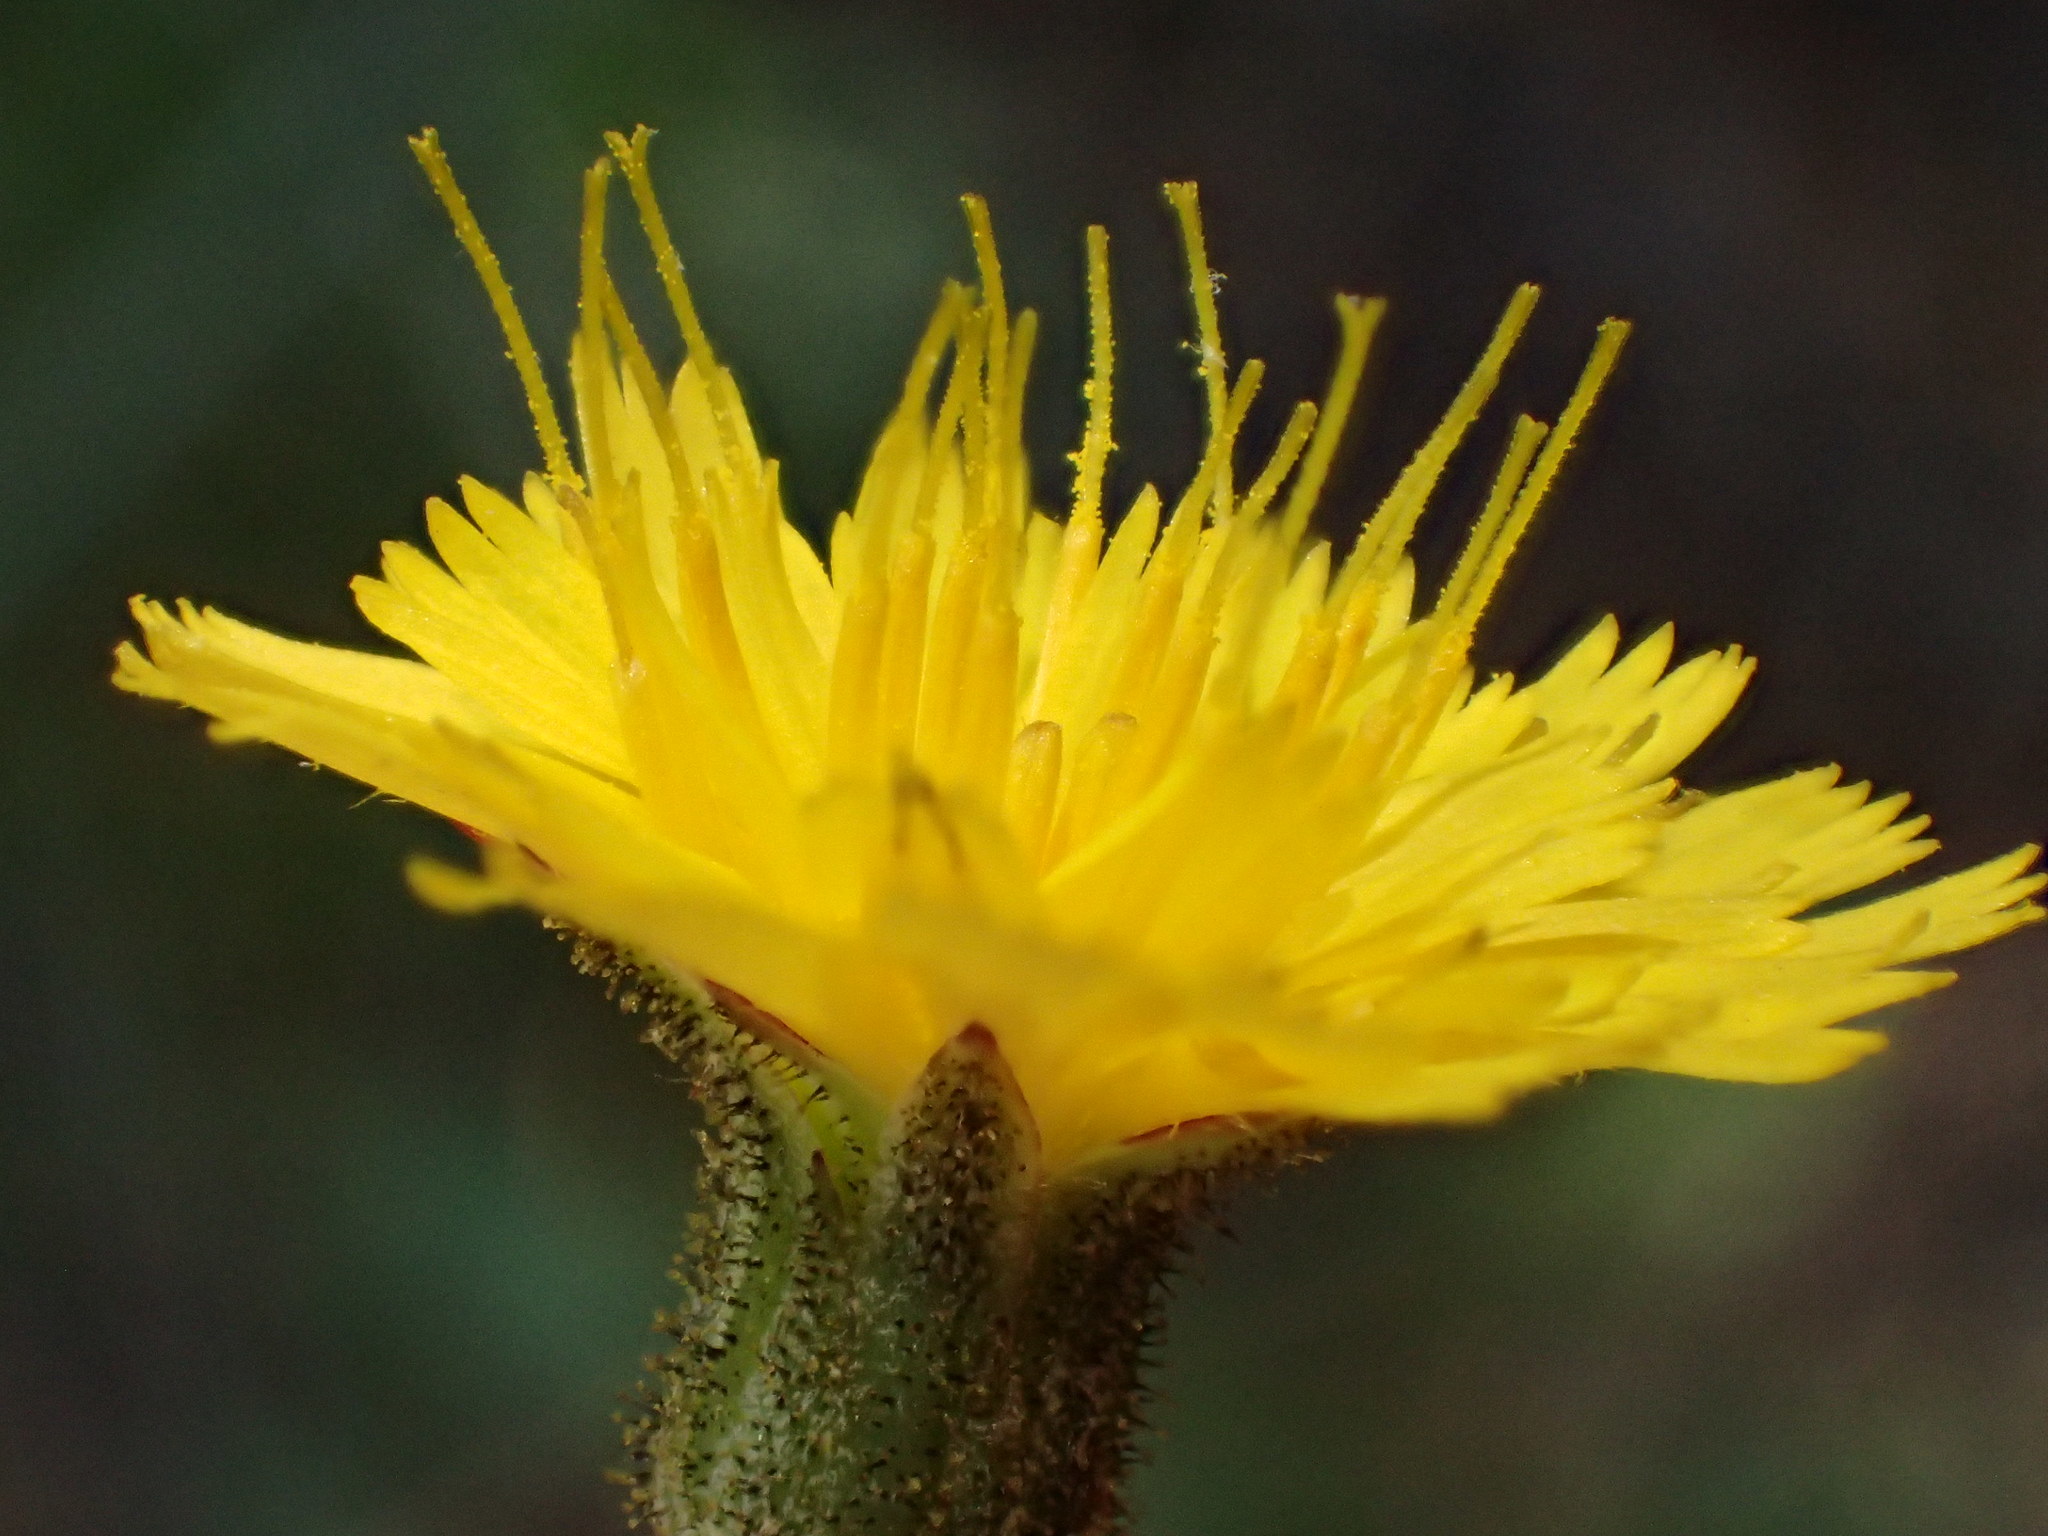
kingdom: Plantae
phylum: Tracheophyta
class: Magnoliopsida
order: Asterales
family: Asteraceae
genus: Hieracium
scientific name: Hieracium argutum
